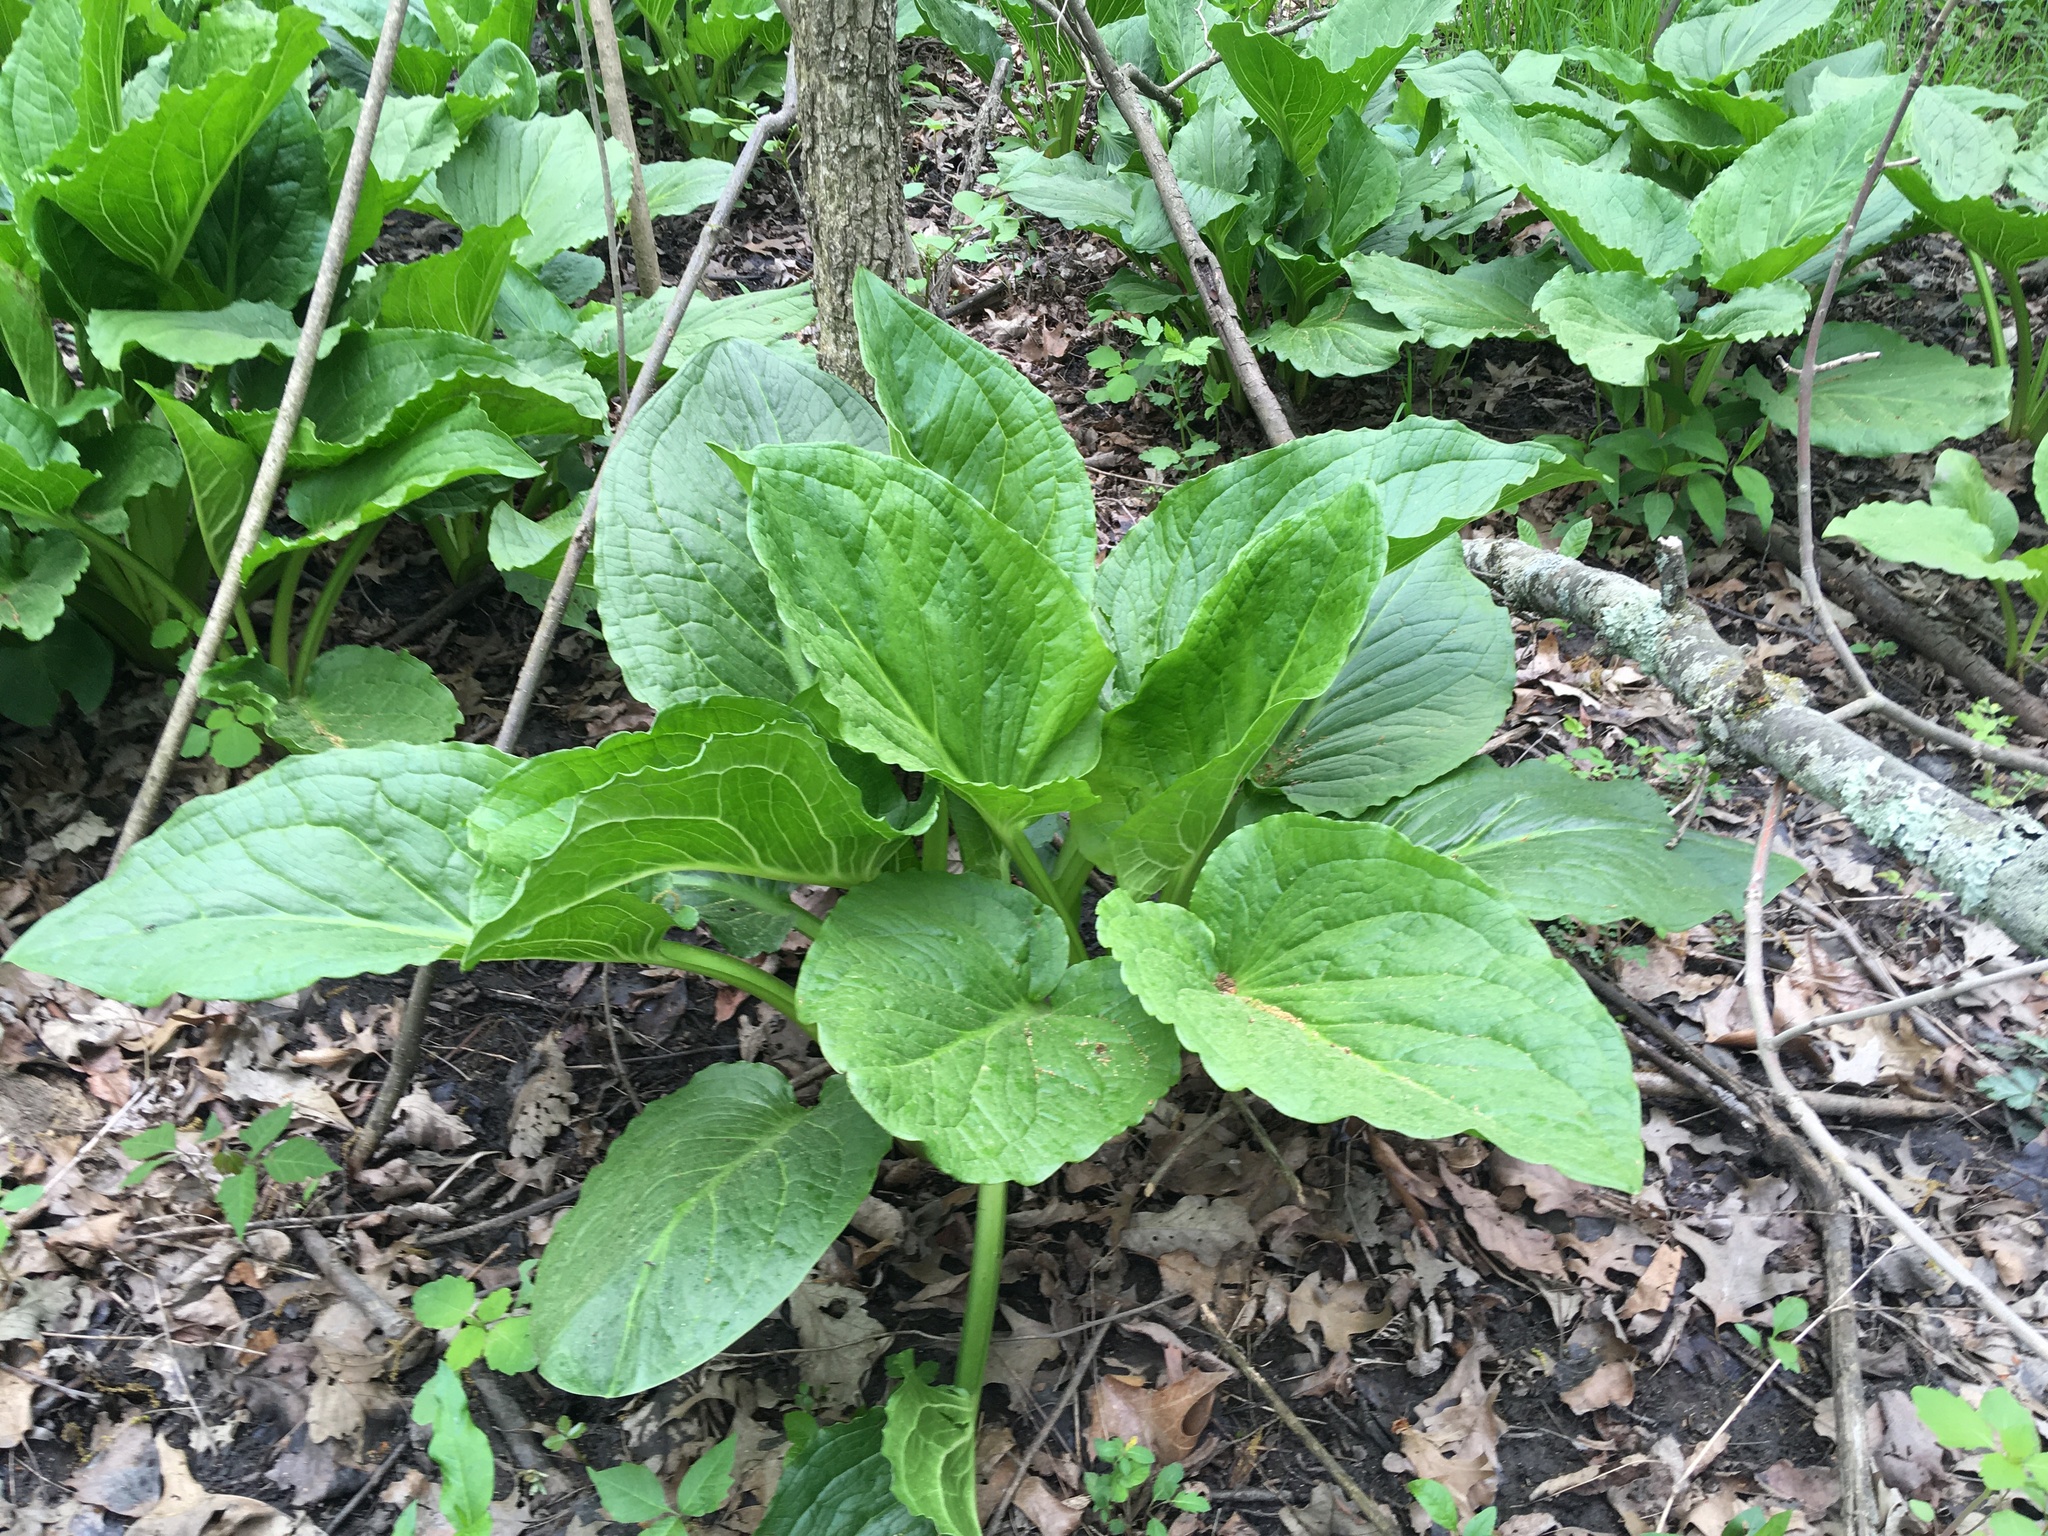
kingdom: Plantae
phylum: Tracheophyta
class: Liliopsida
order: Alismatales
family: Araceae
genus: Symplocarpus
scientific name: Symplocarpus foetidus
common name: Eastern skunk cabbage
